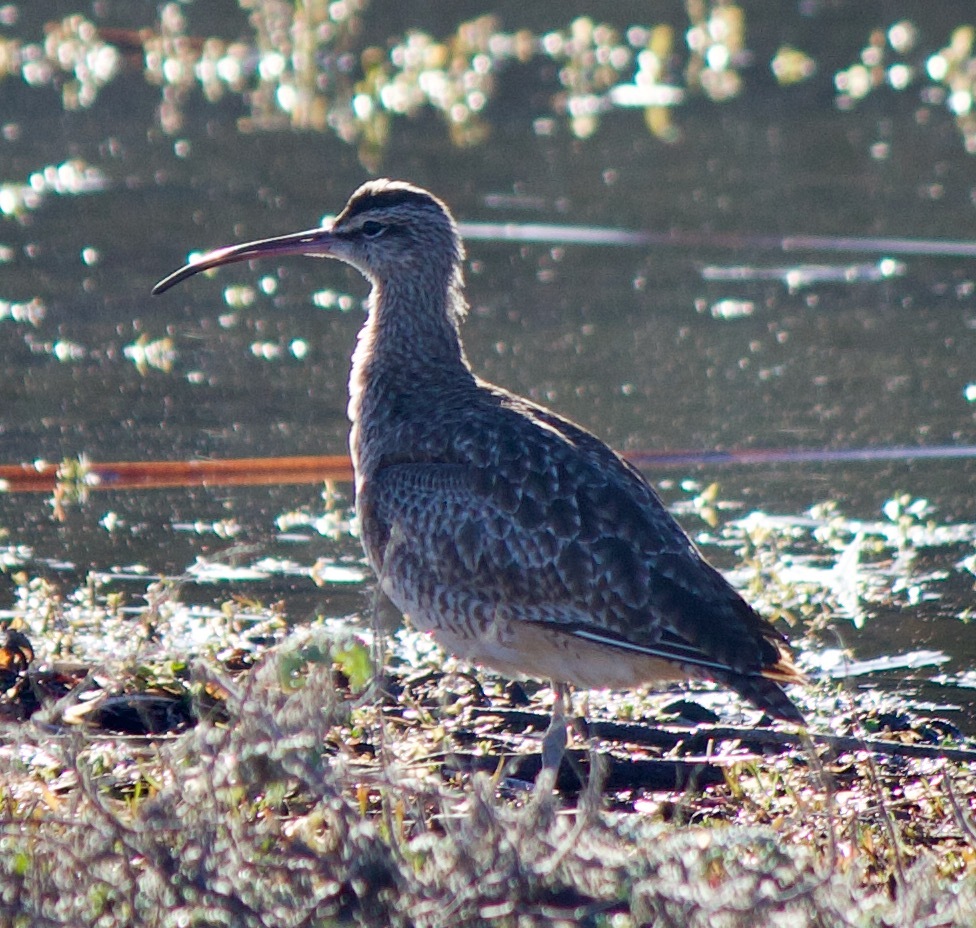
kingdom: Animalia
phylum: Chordata
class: Aves
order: Charadriiformes
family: Scolopacidae
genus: Numenius
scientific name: Numenius hudsonicus
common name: Hudsonian whimbrel
